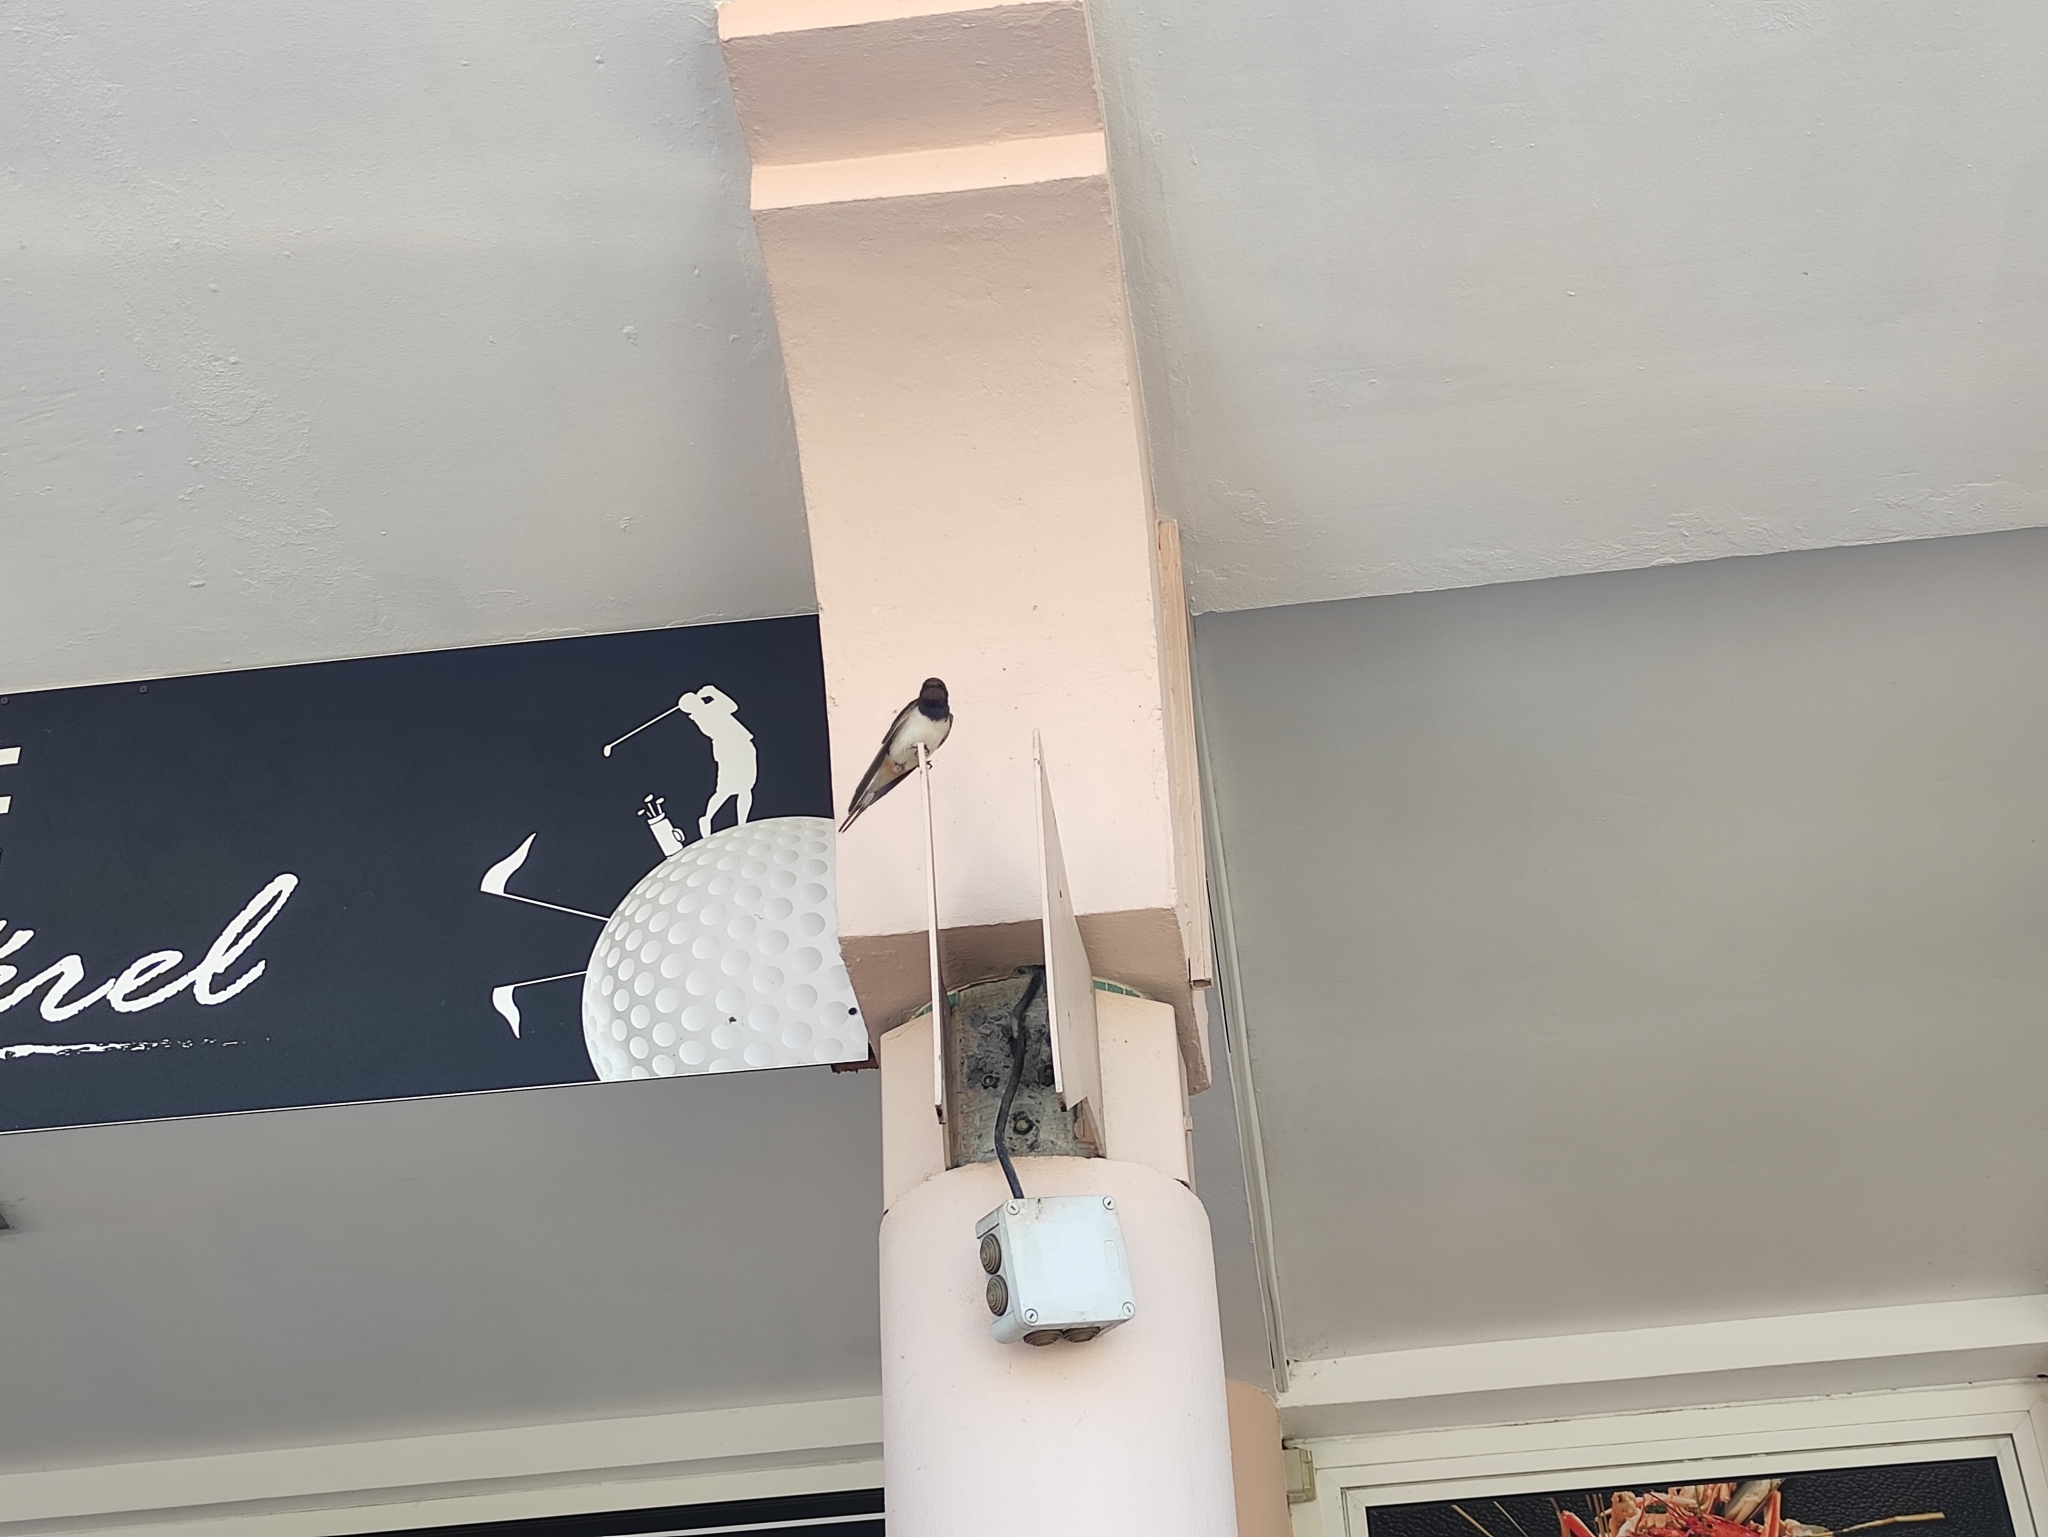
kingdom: Animalia
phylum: Chordata
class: Aves
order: Passeriformes
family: Hirundinidae
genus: Hirundo
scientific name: Hirundo rustica
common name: Barn swallow
